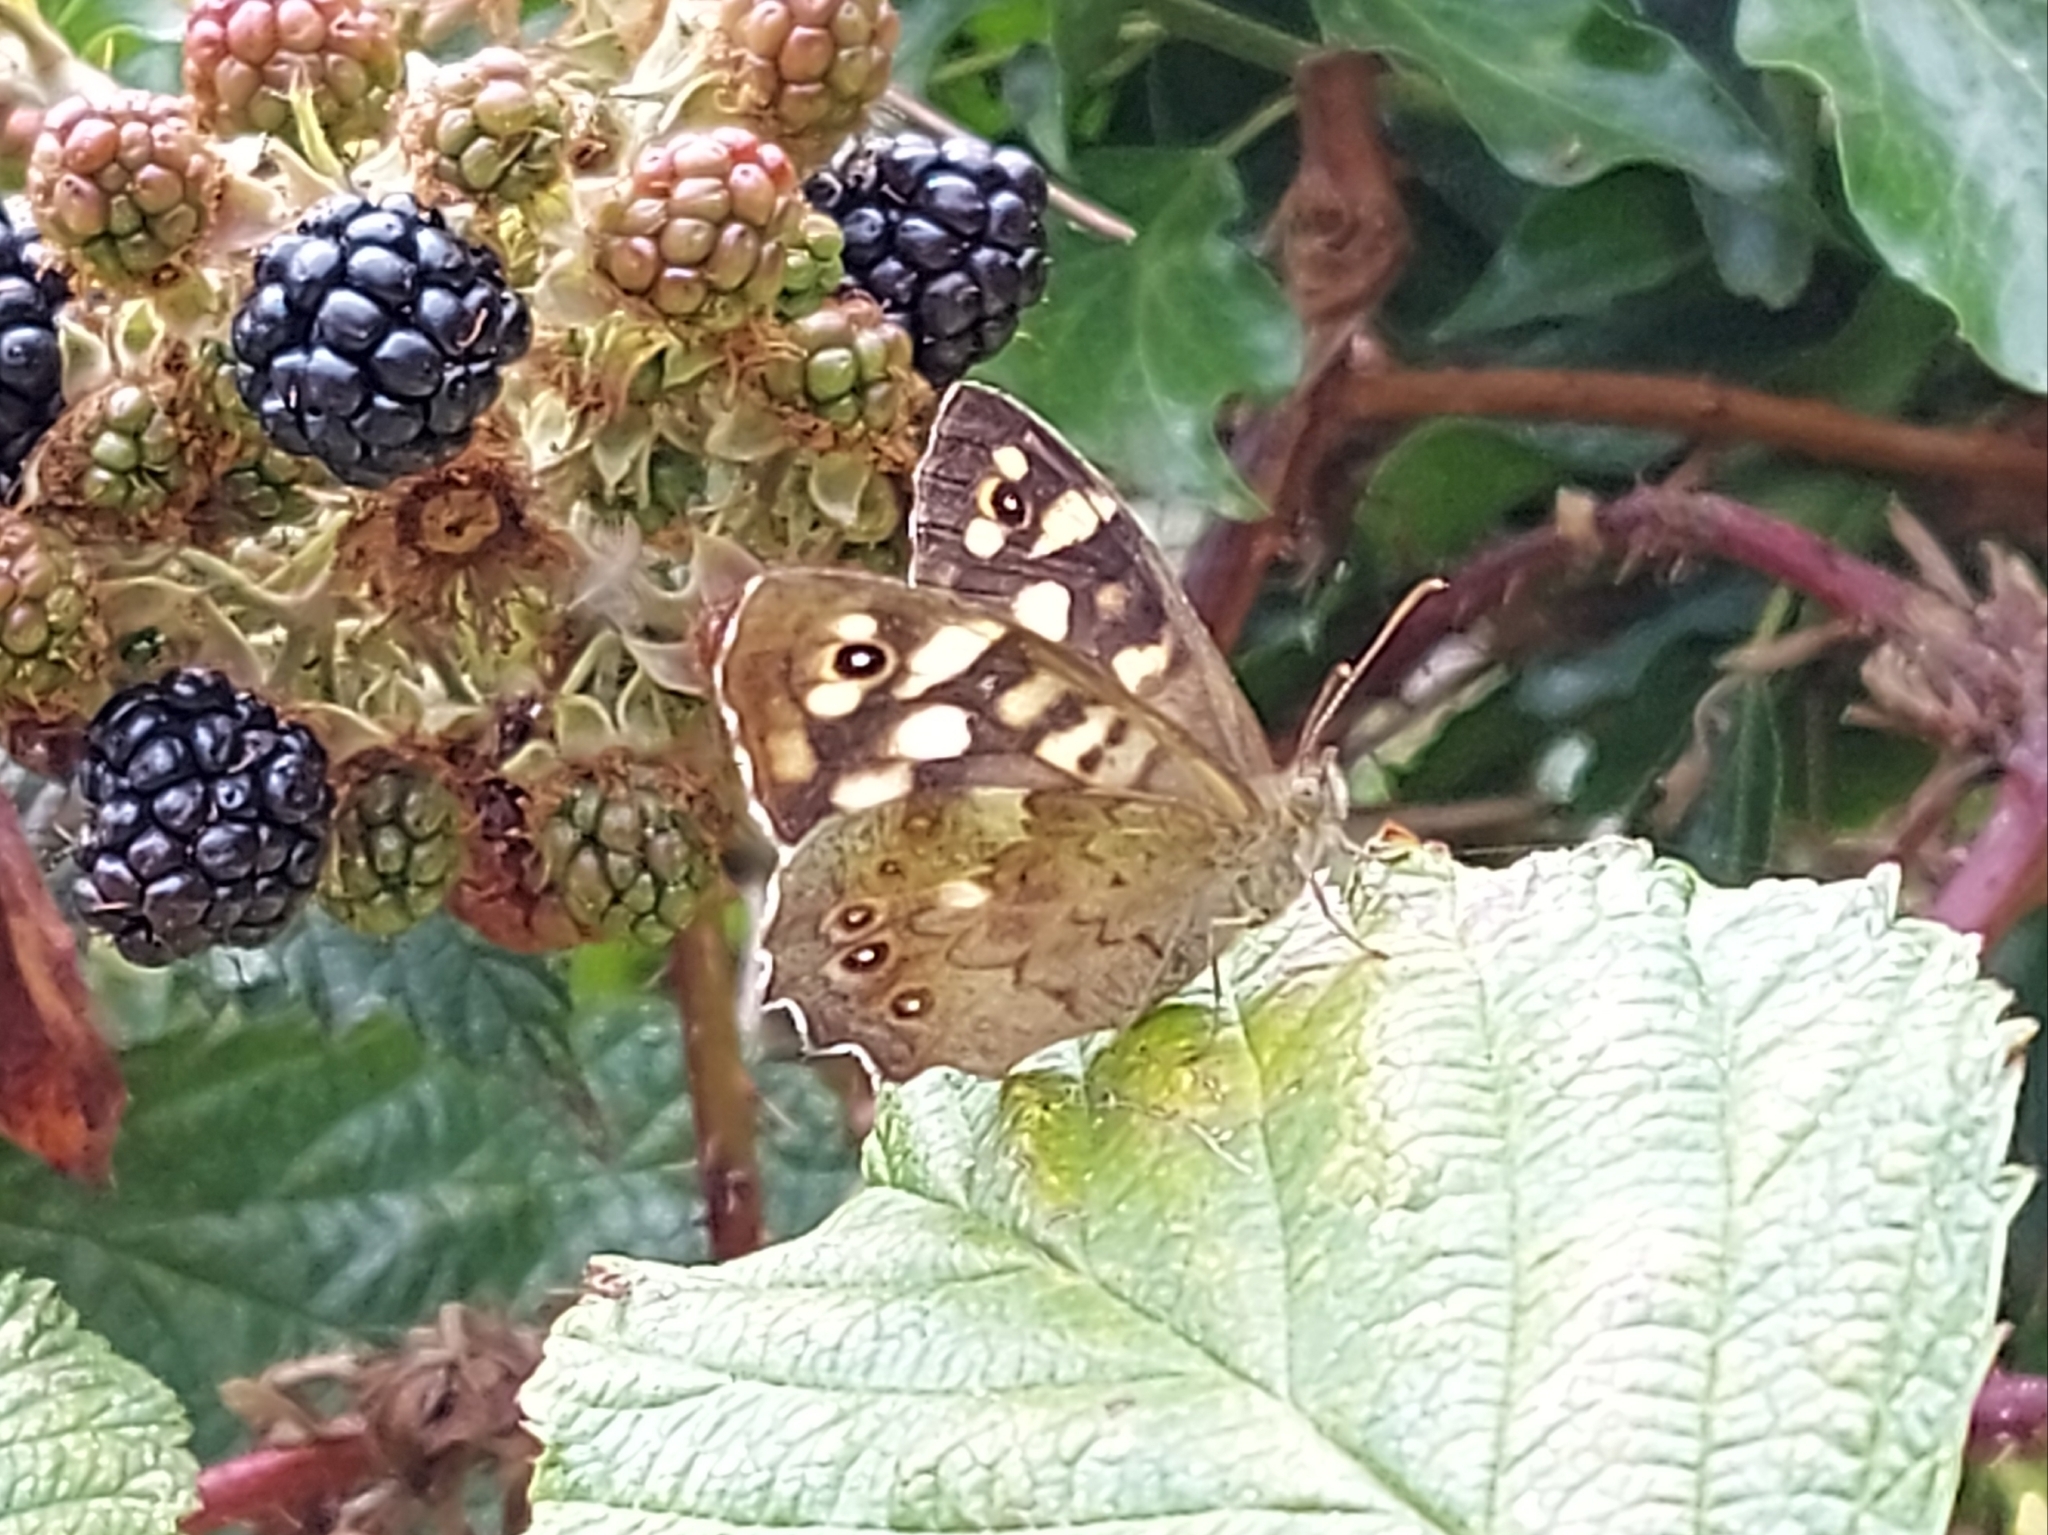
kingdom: Animalia
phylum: Arthropoda
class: Insecta
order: Lepidoptera
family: Nymphalidae
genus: Pararge
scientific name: Pararge aegeria
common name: Speckled wood
